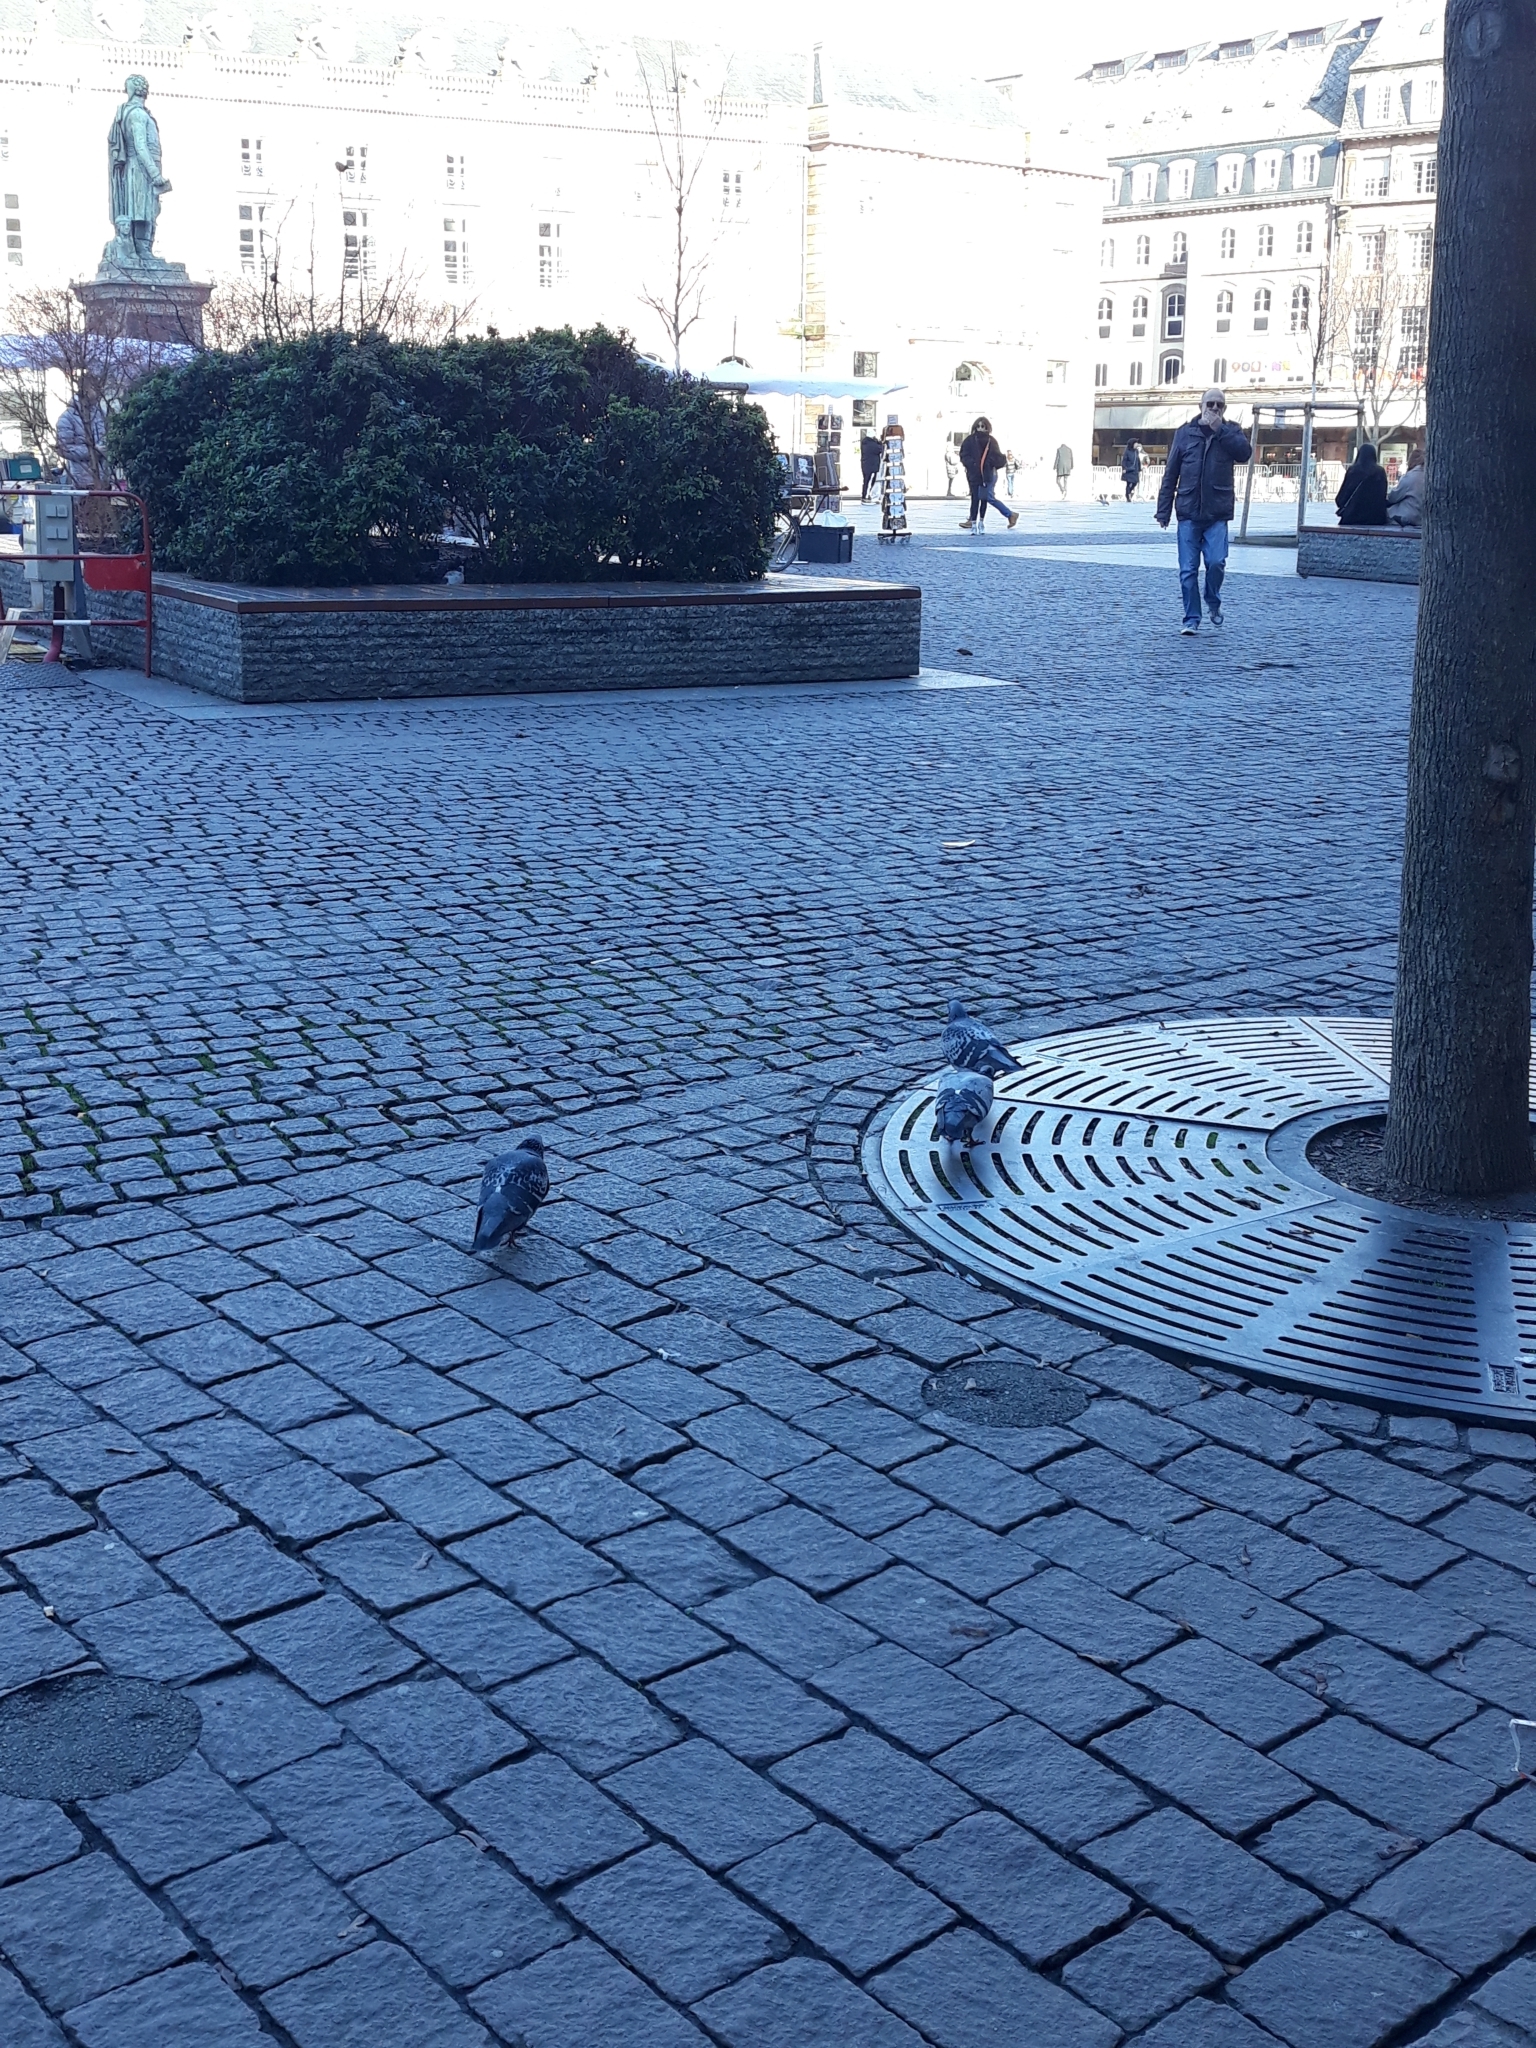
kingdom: Animalia
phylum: Chordata
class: Aves
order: Columbiformes
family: Columbidae
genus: Columba
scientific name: Columba livia
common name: Rock pigeon
